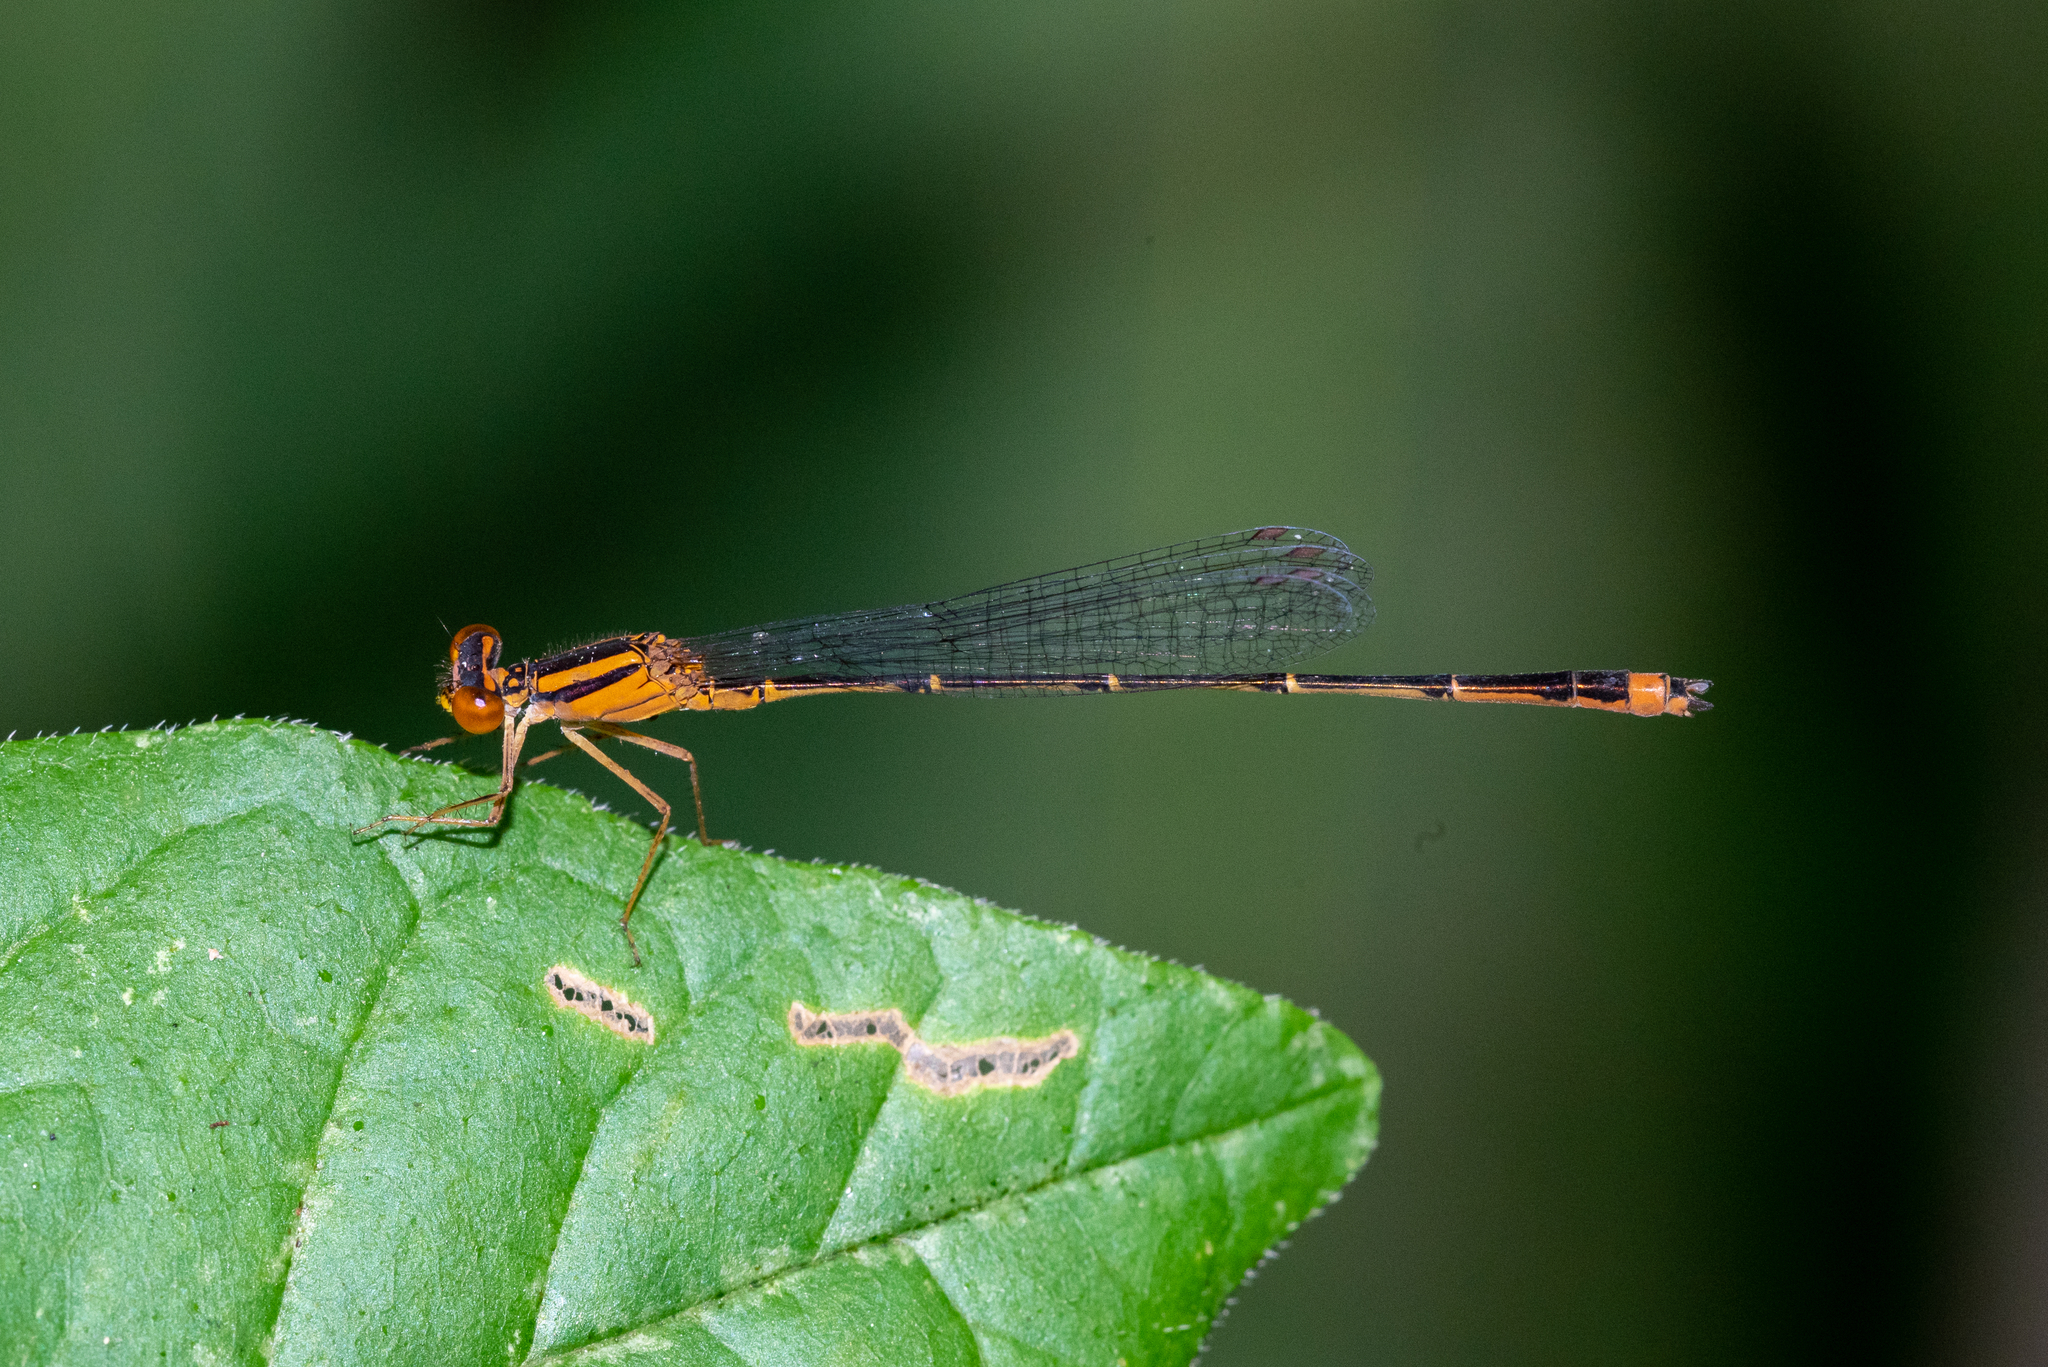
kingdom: Animalia
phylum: Arthropoda
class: Insecta
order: Odonata
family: Coenagrionidae
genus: Enallagma
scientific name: Enallagma signatum
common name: Orange bluet
